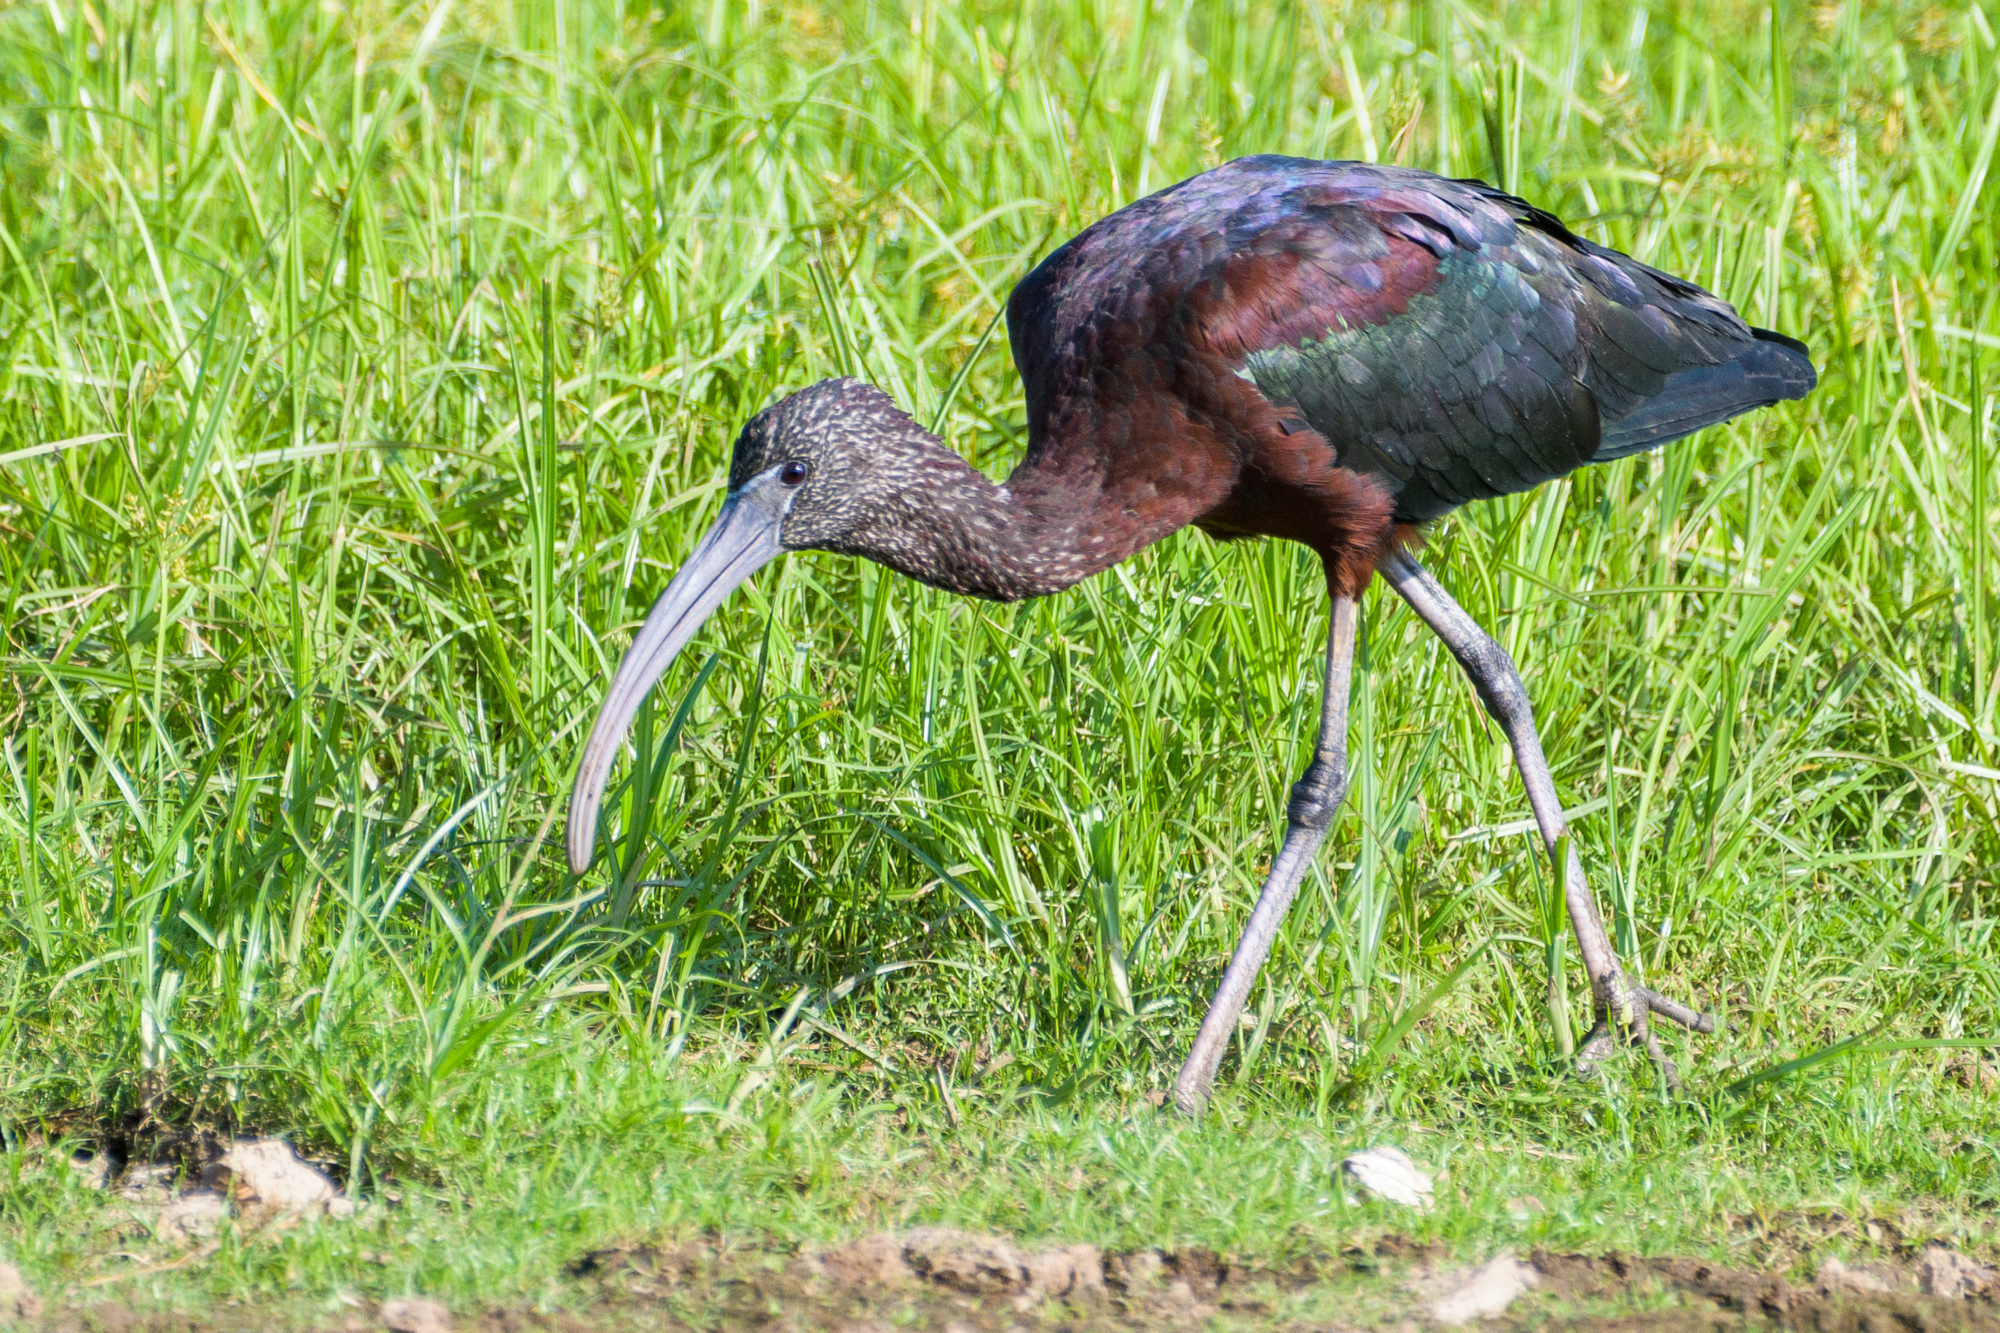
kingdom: Animalia
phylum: Chordata
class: Aves
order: Pelecaniformes
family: Threskiornithidae
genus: Plegadis
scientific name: Plegadis falcinellus
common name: Glossy ibis
